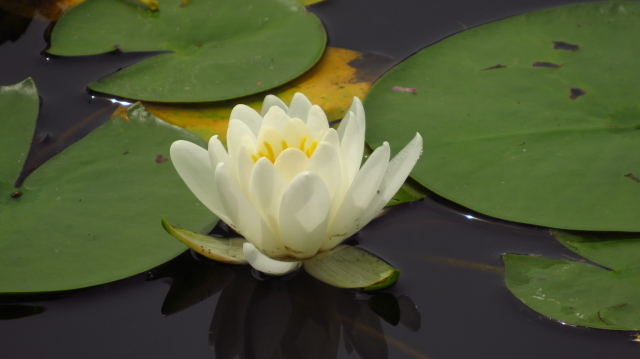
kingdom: Plantae
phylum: Tracheophyta
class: Magnoliopsida
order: Nymphaeales
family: Nymphaeaceae
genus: Nymphaea
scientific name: Nymphaea odorata
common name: Fragrant water-lily
